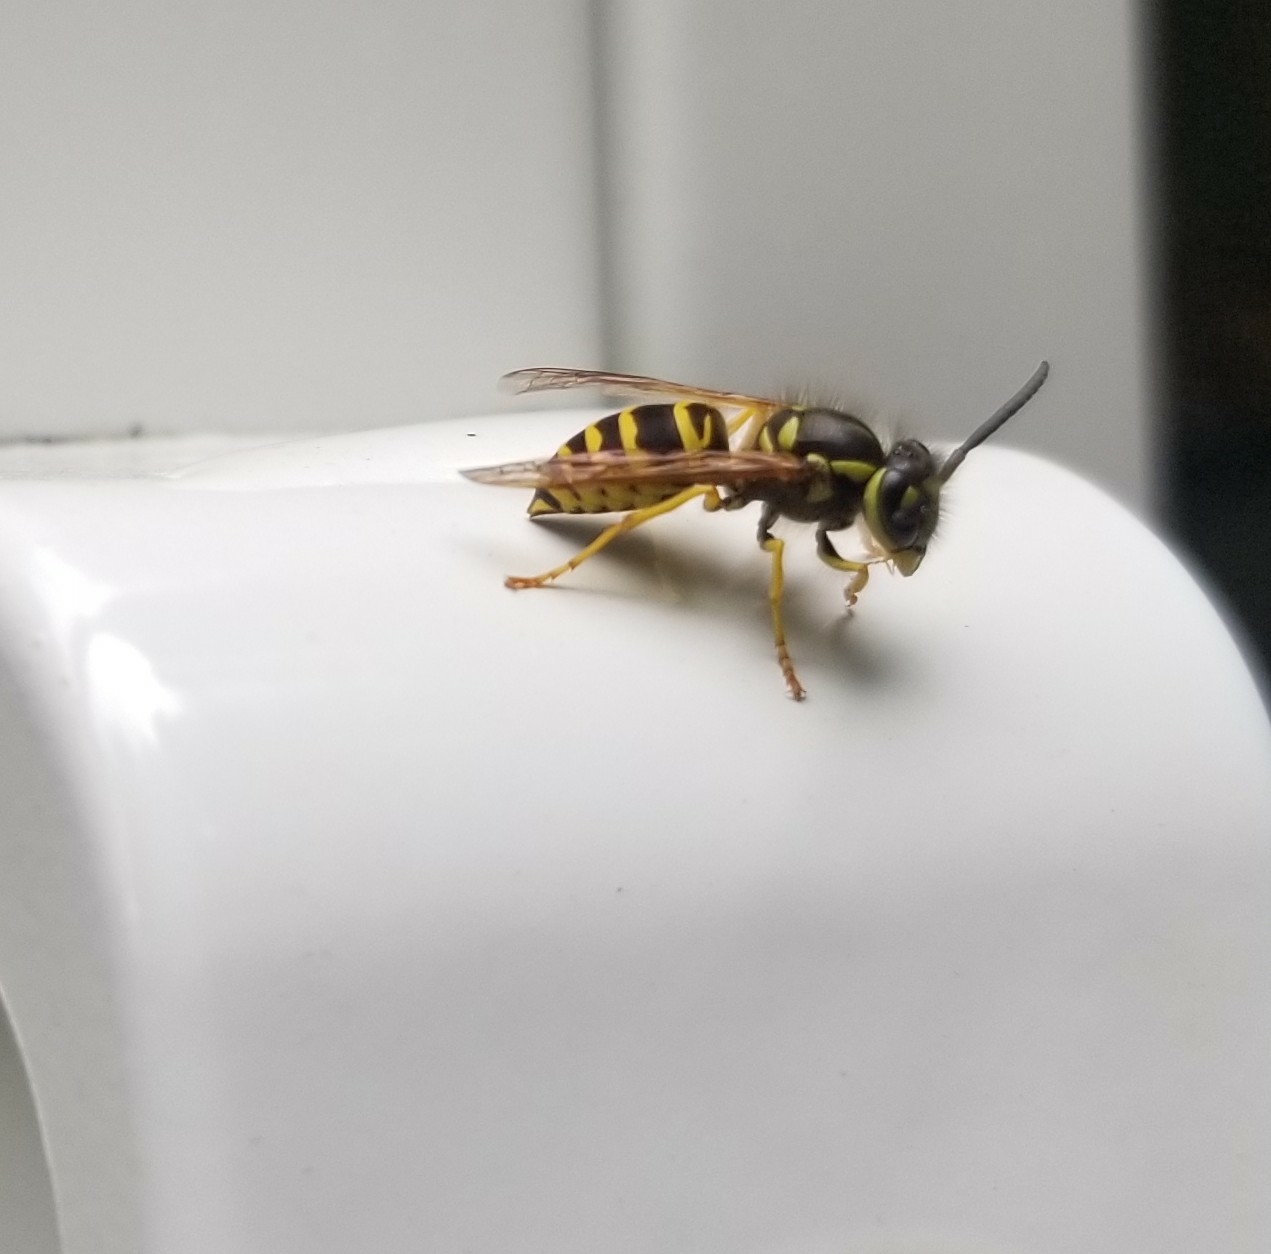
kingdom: Animalia
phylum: Arthropoda
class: Insecta
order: Hymenoptera
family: Vespidae
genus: Vespula
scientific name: Vespula maculifrons
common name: Eastern yellowjacket
